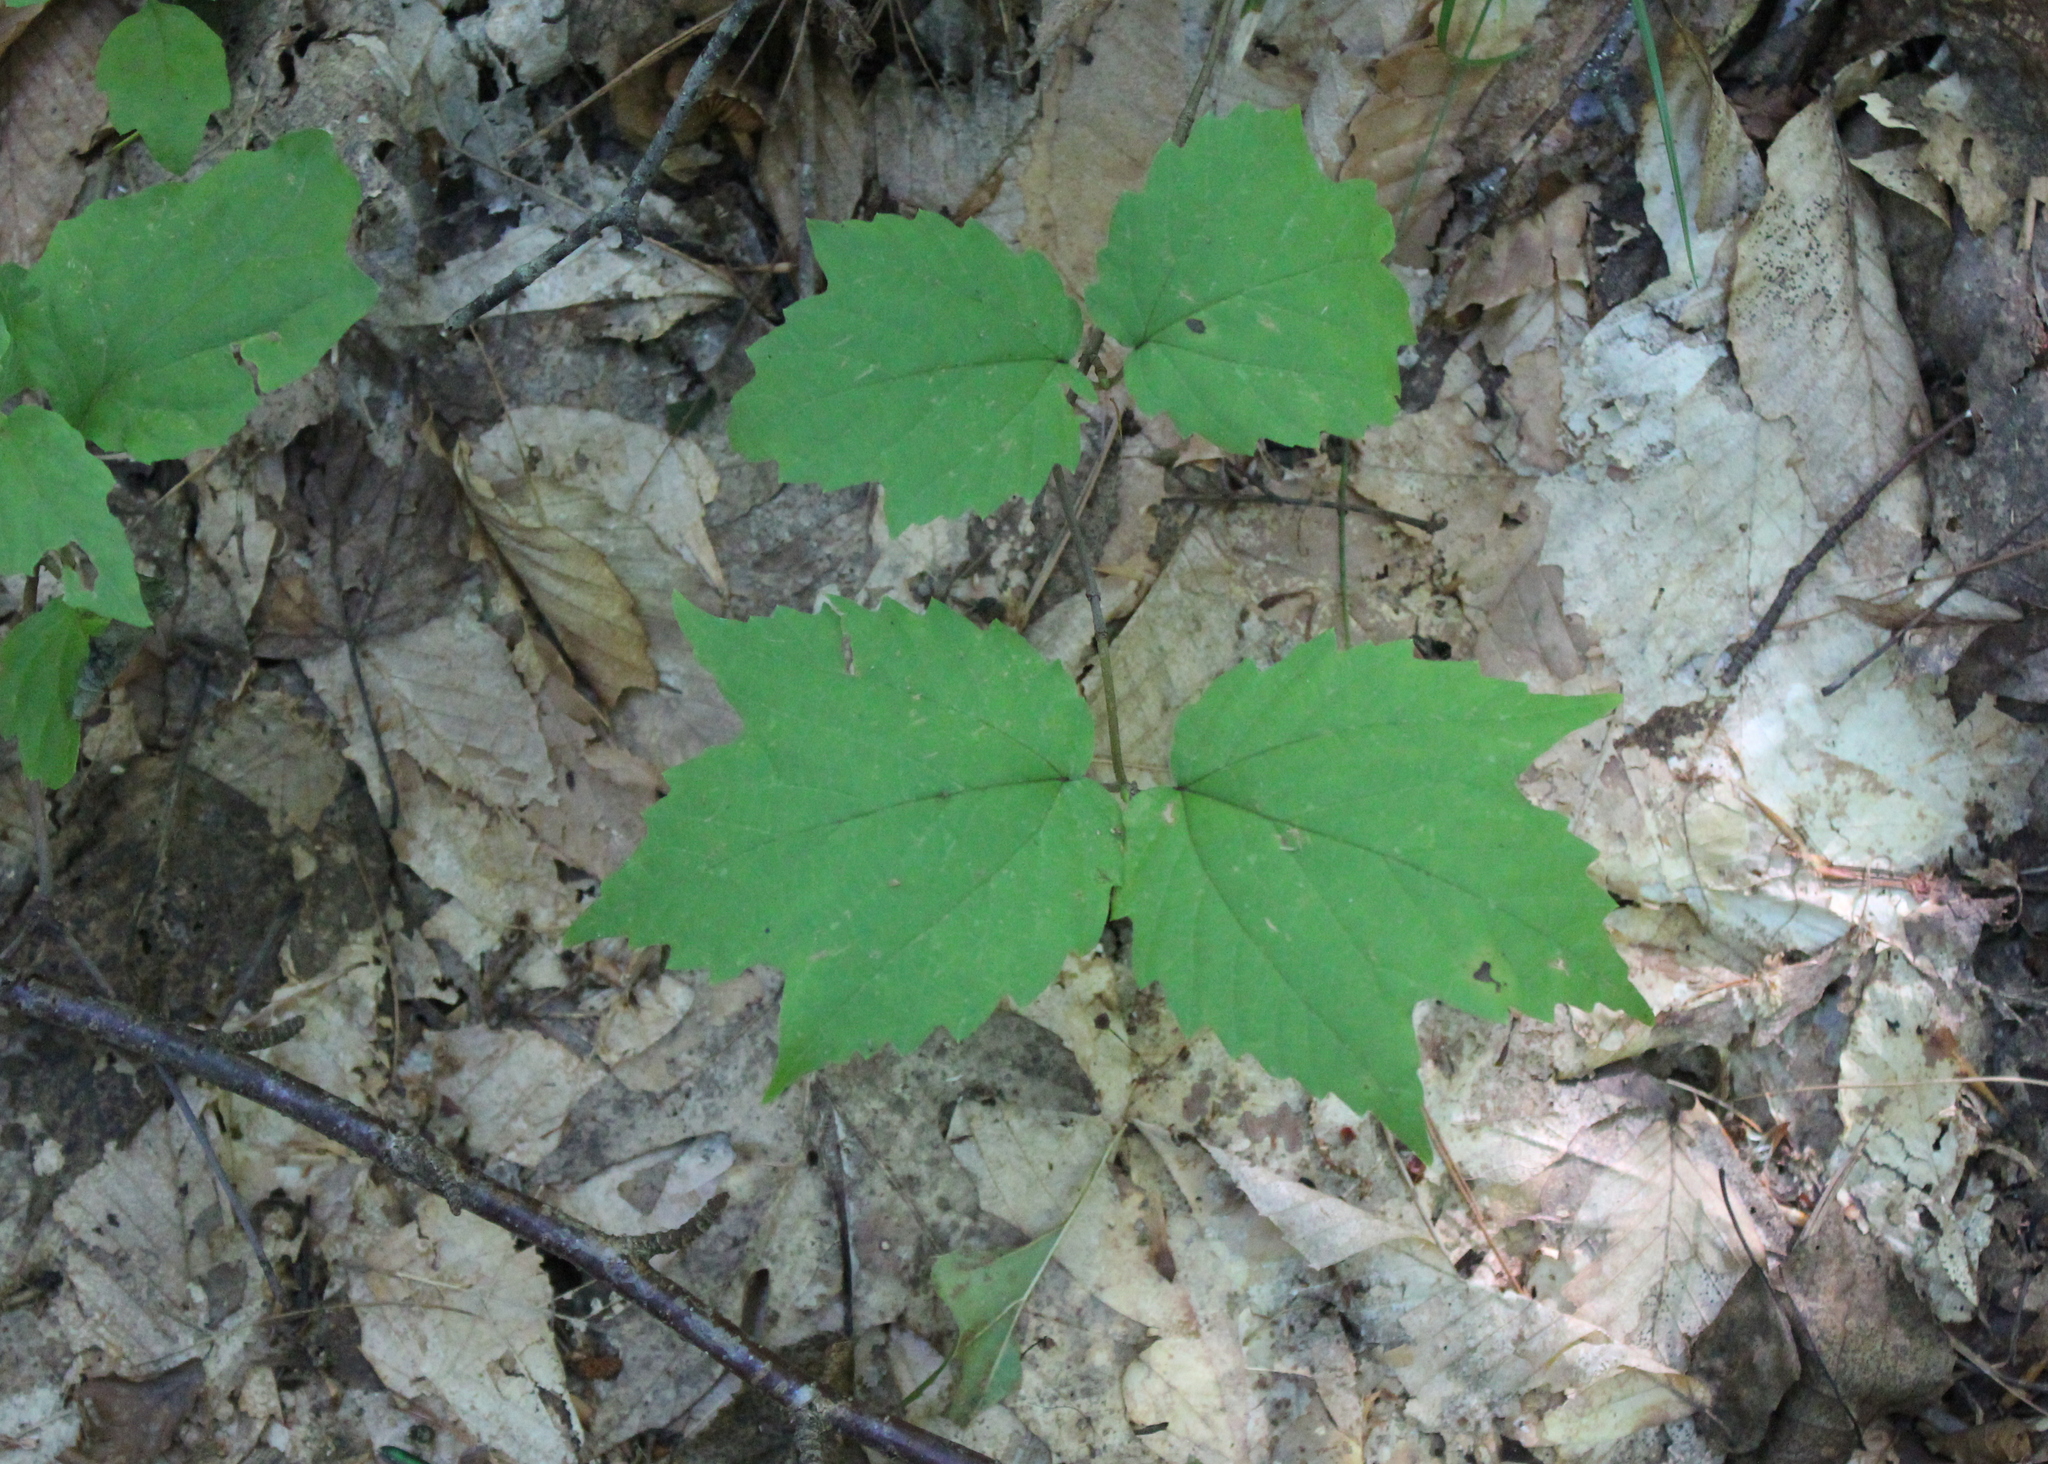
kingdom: Plantae
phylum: Tracheophyta
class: Magnoliopsida
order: Dipsacales
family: Viburnaceae
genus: Viburnum
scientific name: Viburnum acerifolium
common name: Dockmackie
